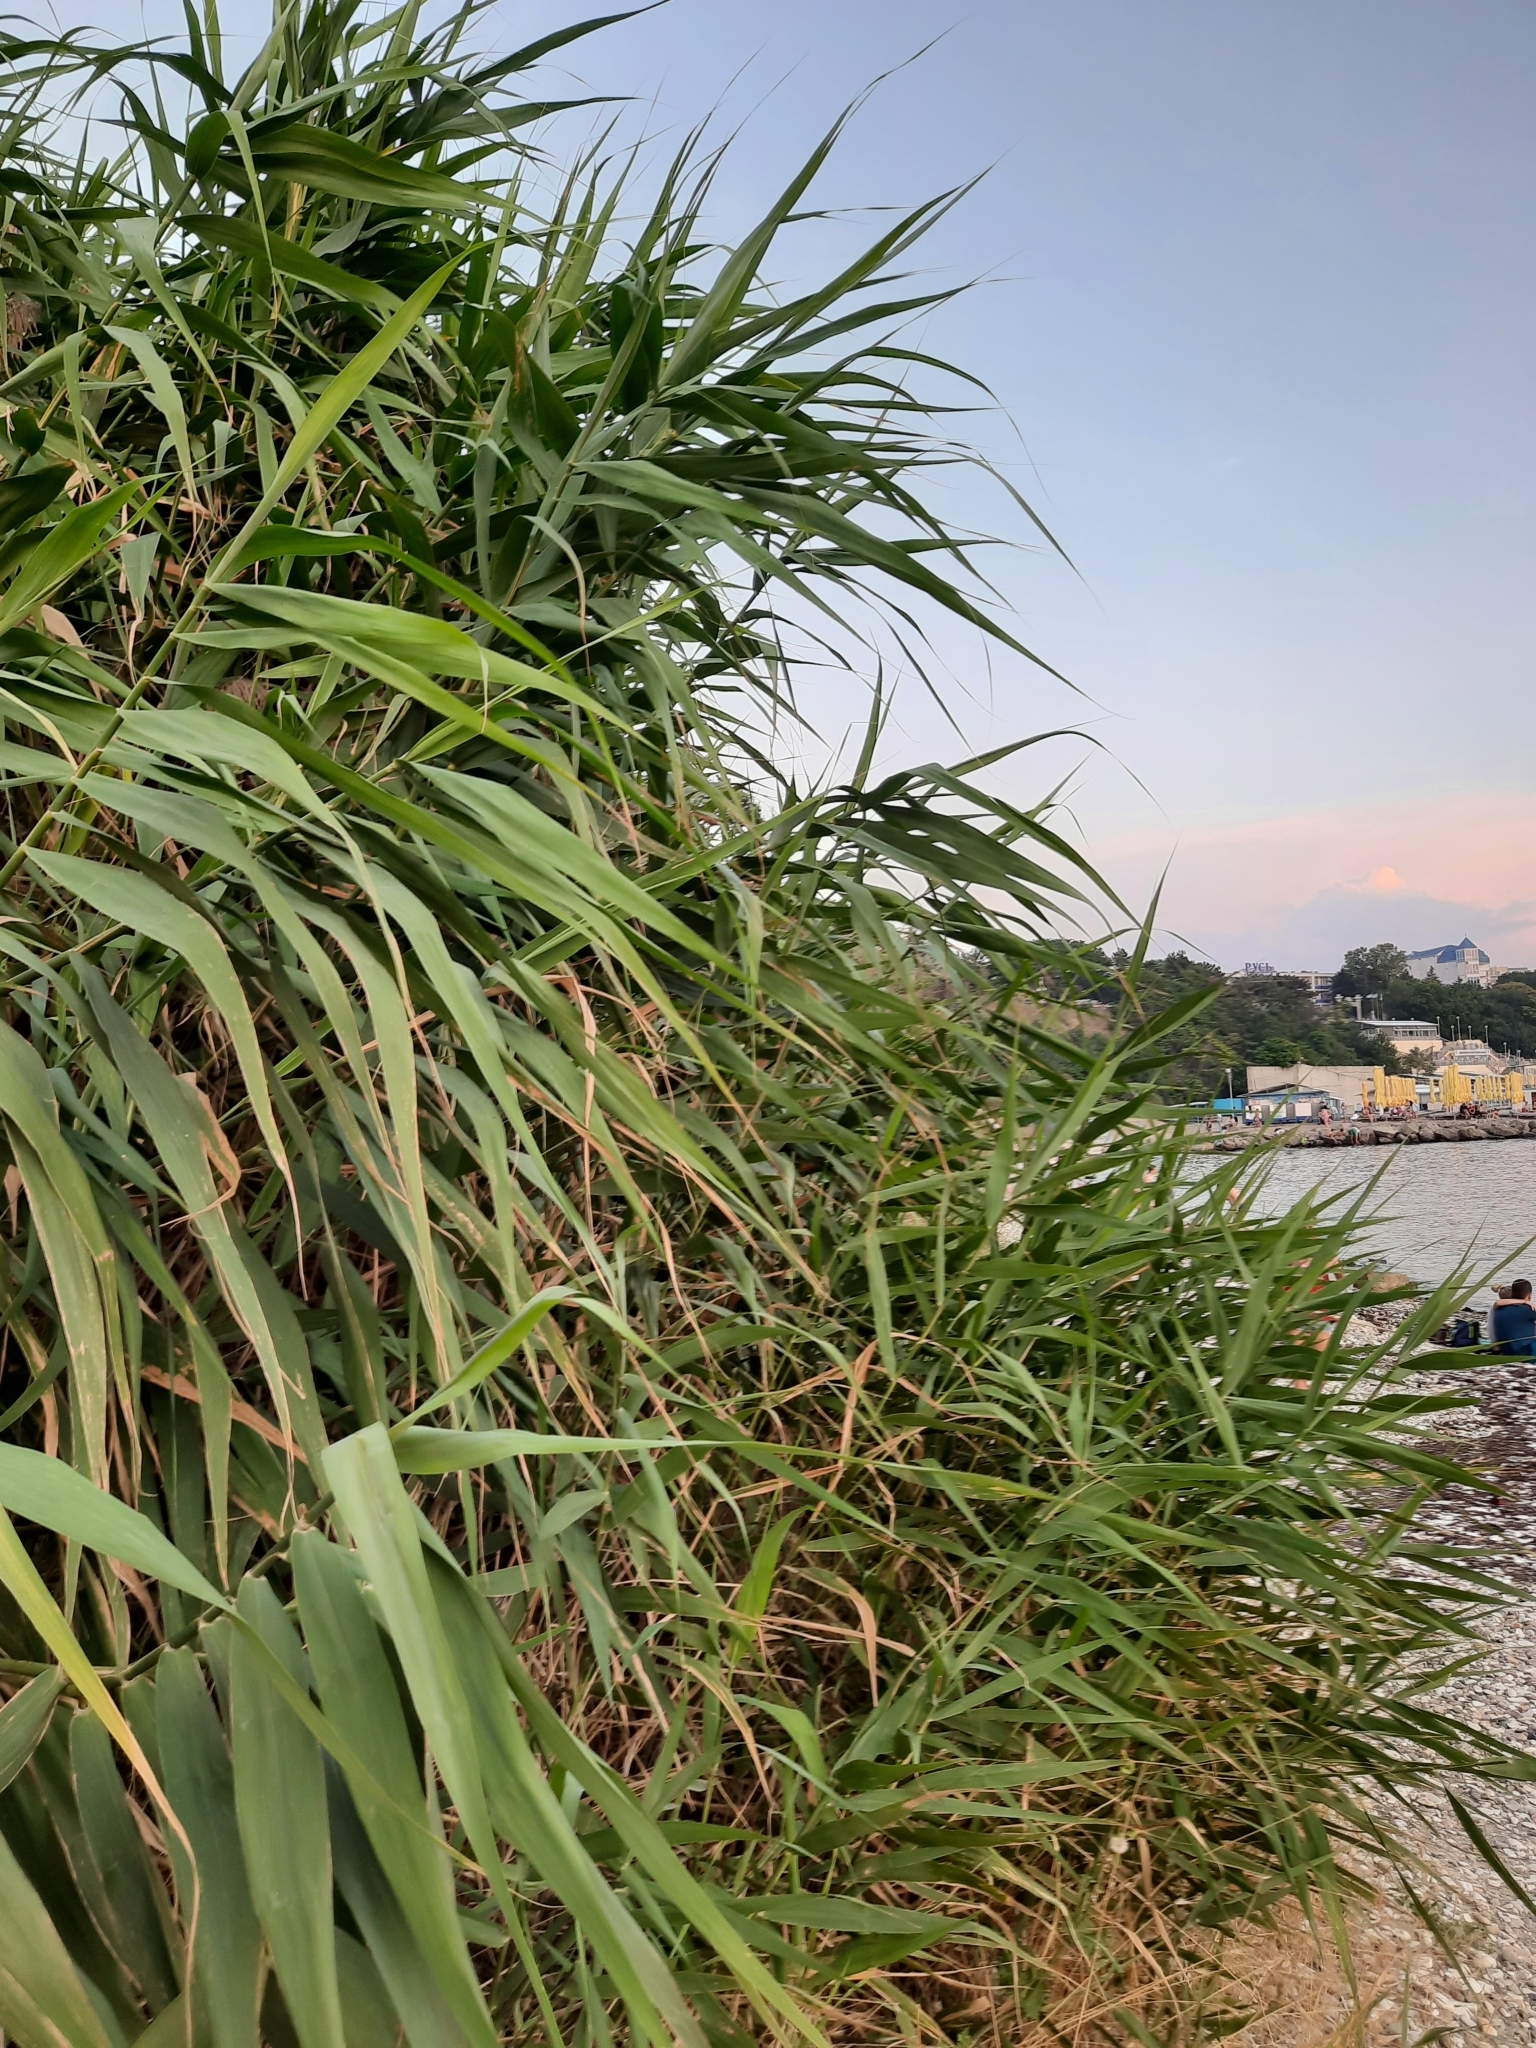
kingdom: Plantae
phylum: Tracheophyta
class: Liliopsida
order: Poales
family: Poaceae
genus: Phragmites
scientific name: Phragmites australis
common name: Common reed
